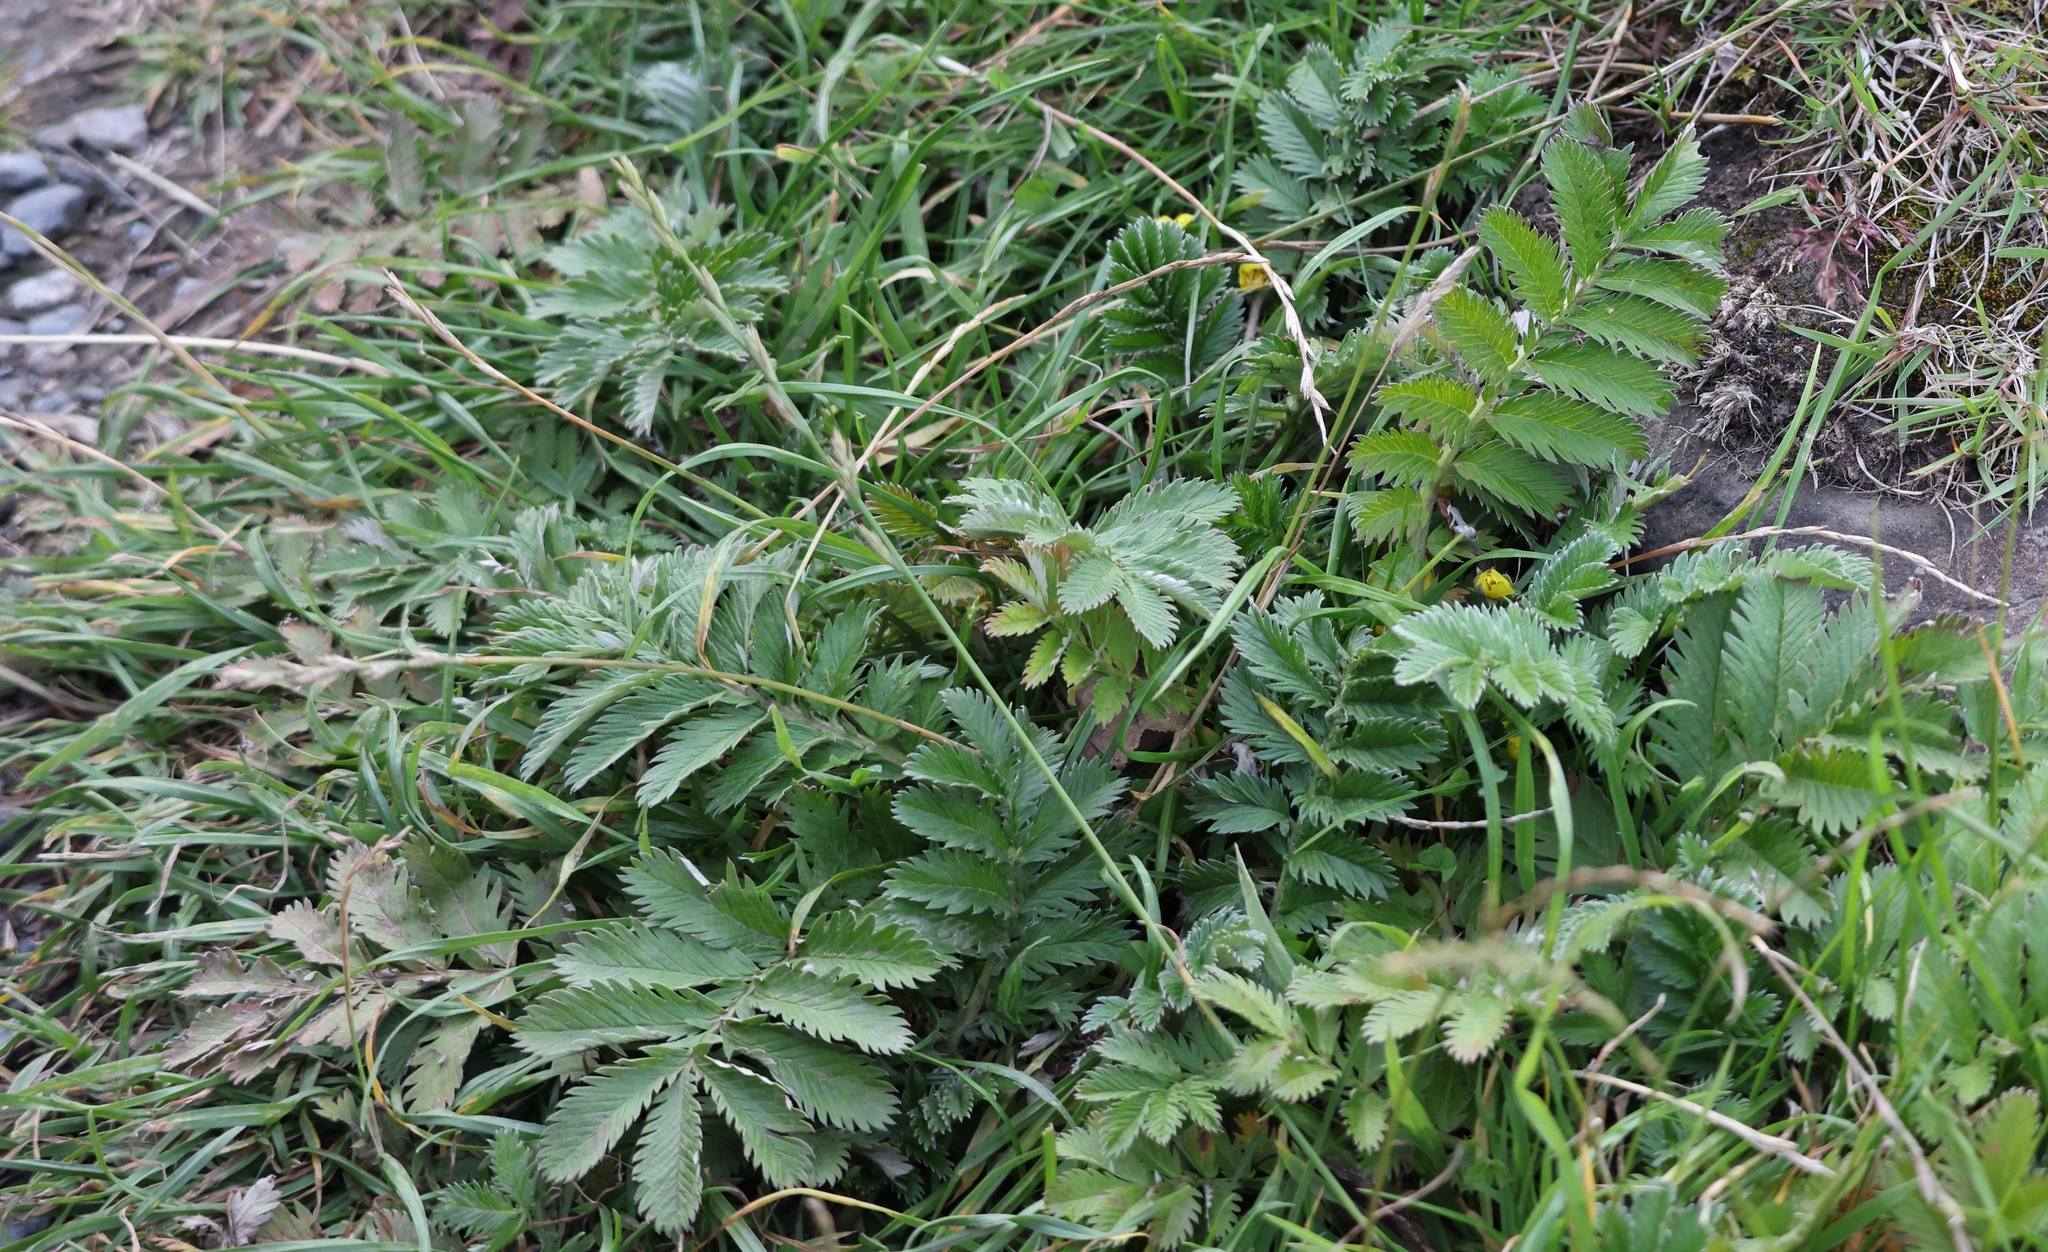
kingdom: Plantae
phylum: Tracheophyta
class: Magnoliopsida
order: Rosales
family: Rosaceae
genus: Argentina
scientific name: Argentina anserina
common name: Common silverweed
